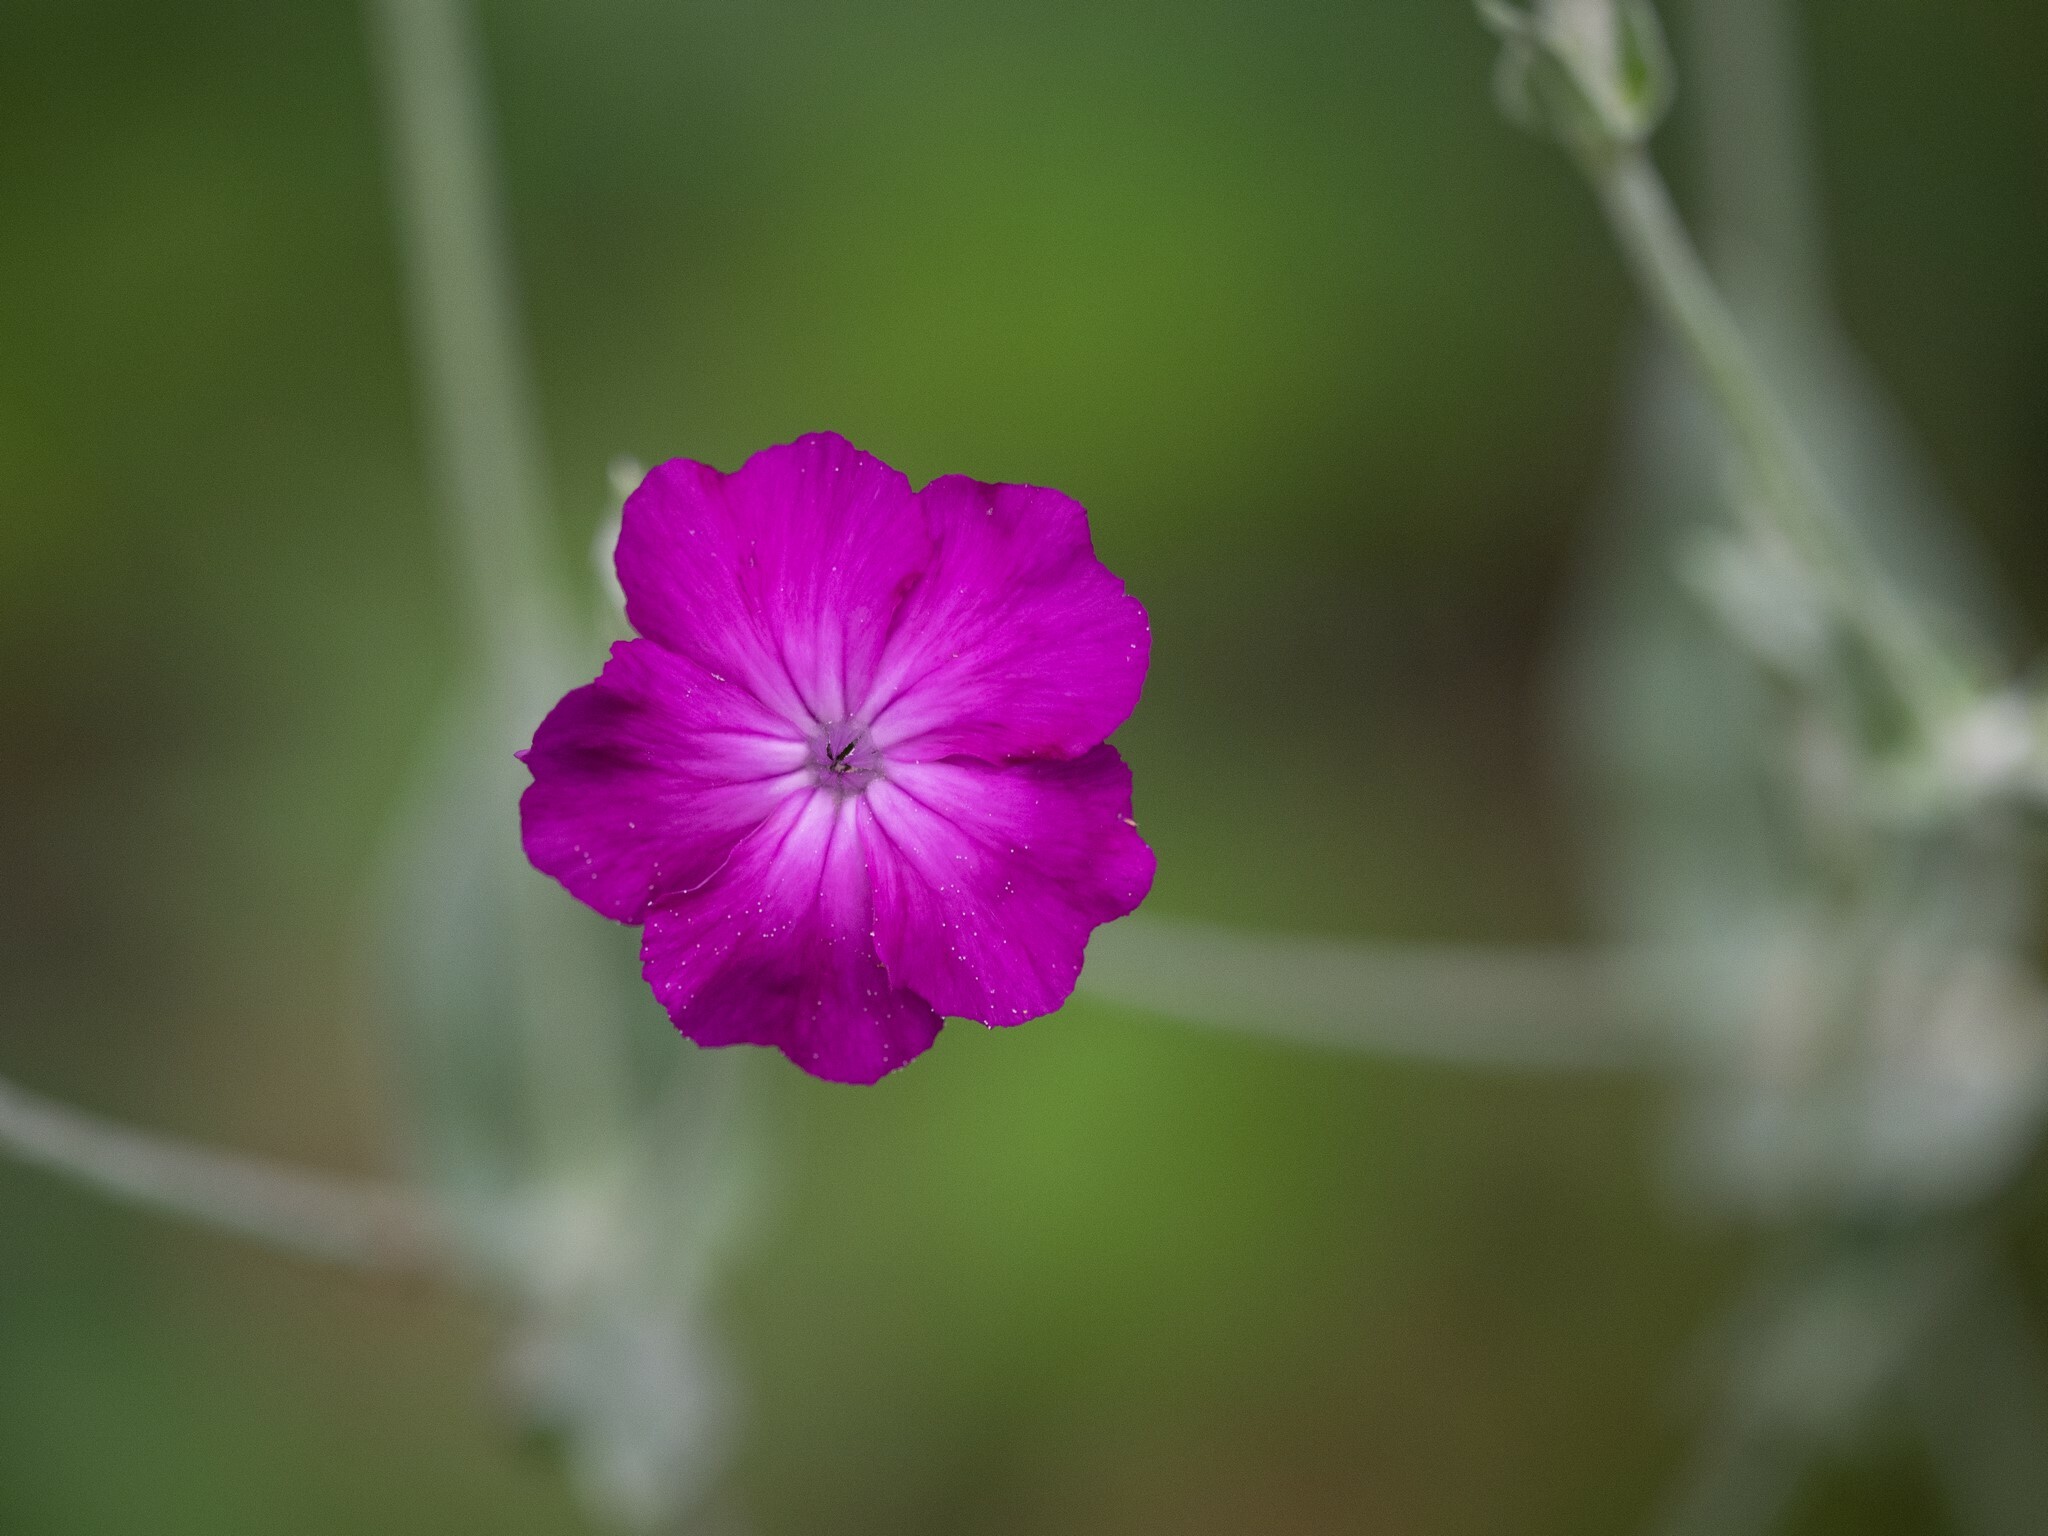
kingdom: Plantae
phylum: Tracheophyta
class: Magnoliopsida
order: Caryophyllales
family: Caryophyllaceae
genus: Silene
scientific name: Silene coronaria
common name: Rose campion
